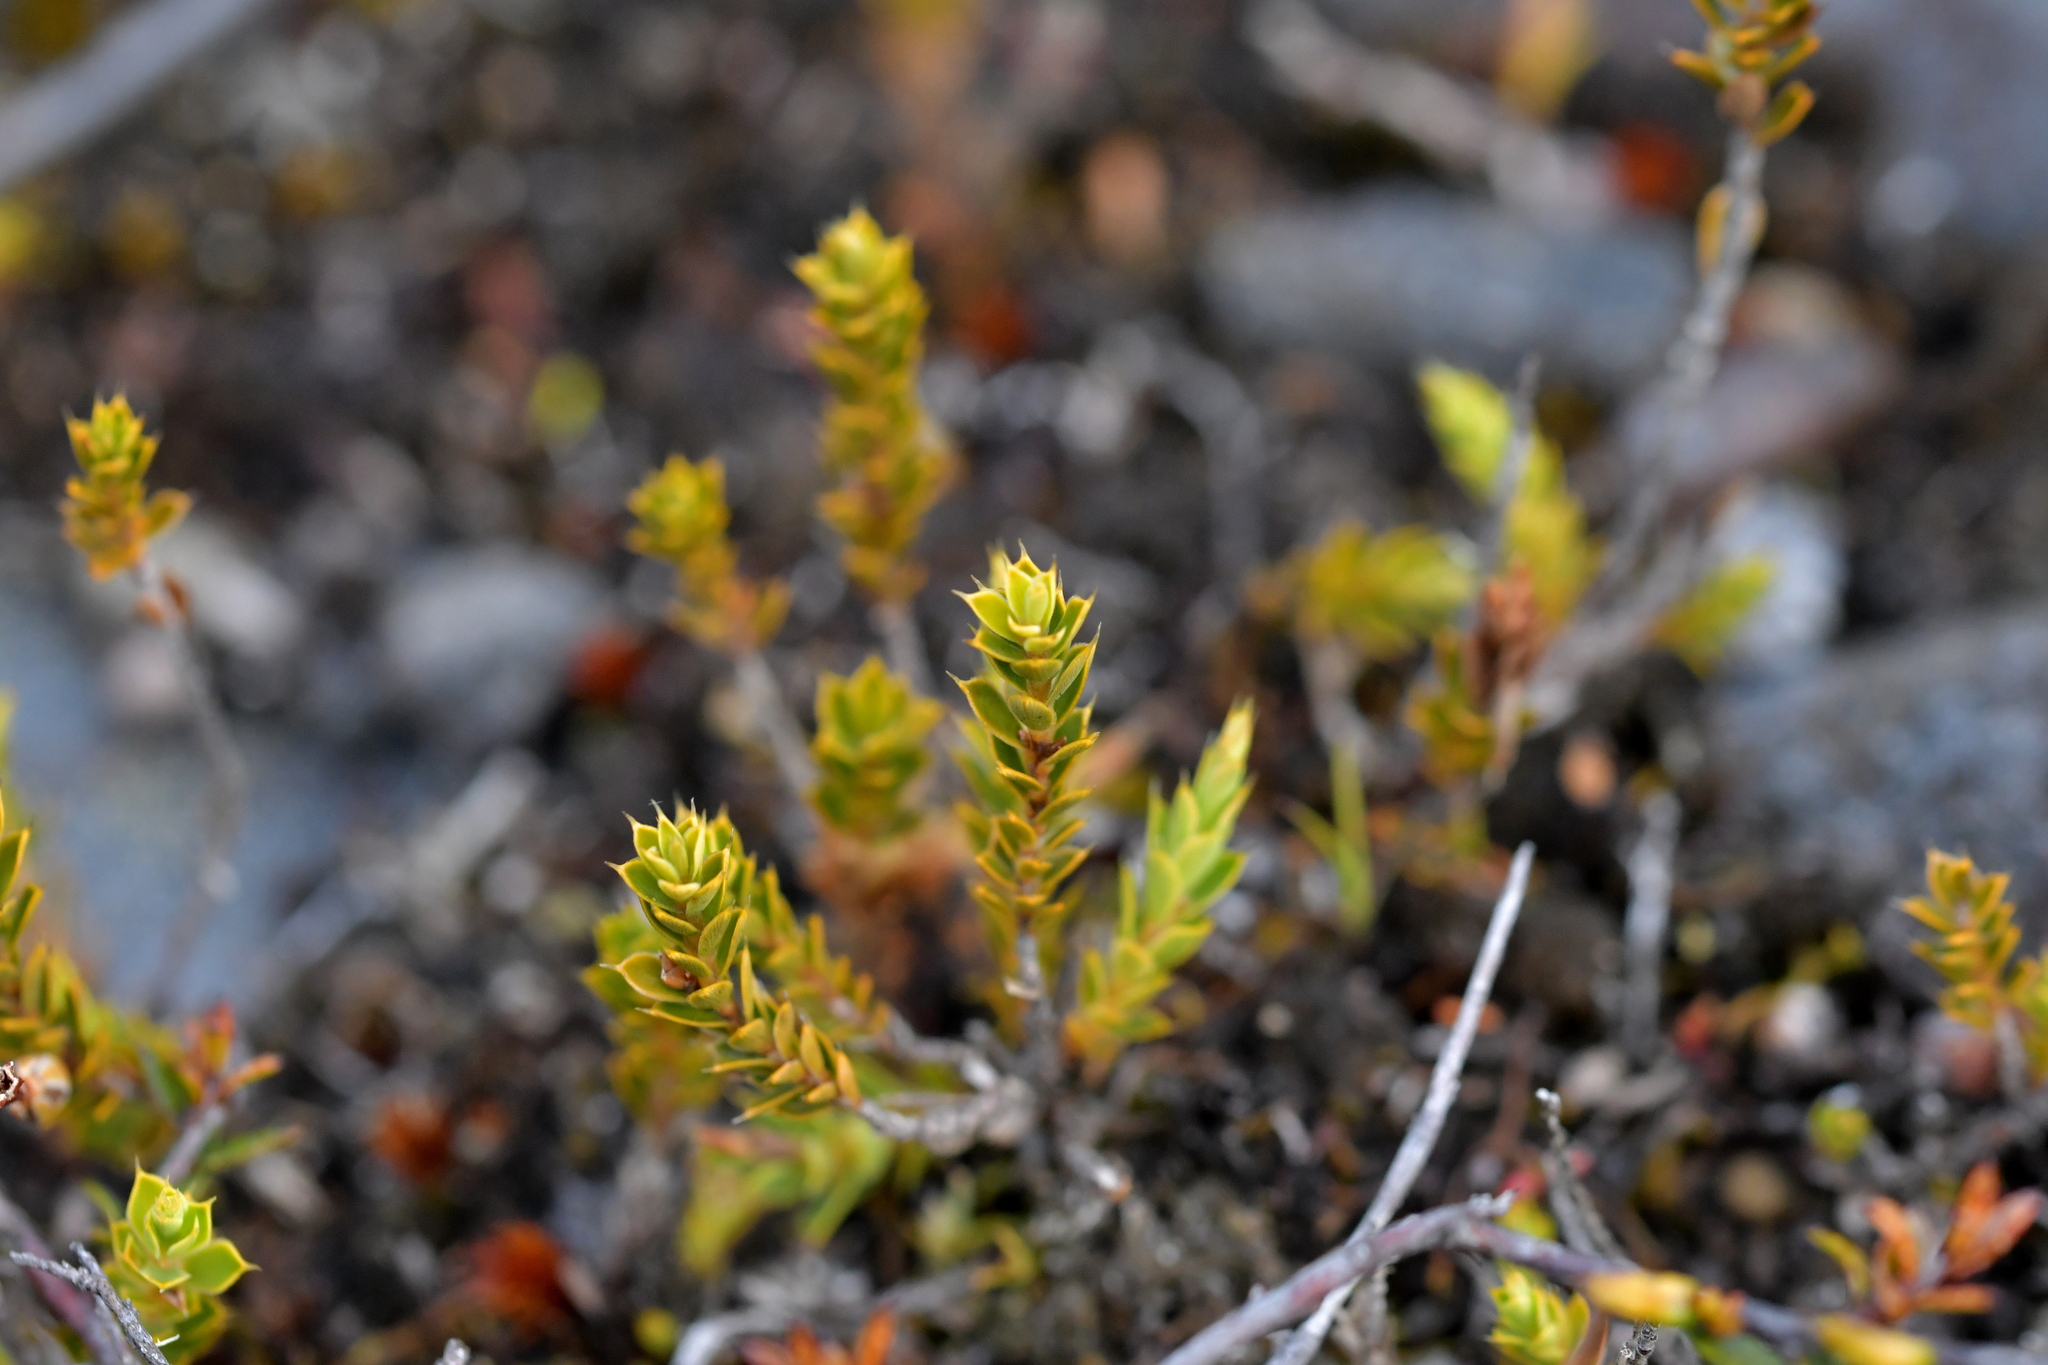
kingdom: Plantae
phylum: Tracheophyta
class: Magnoliopsida
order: Ericales
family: Ericaceae
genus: Styphelia
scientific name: Styphelia nesophila
